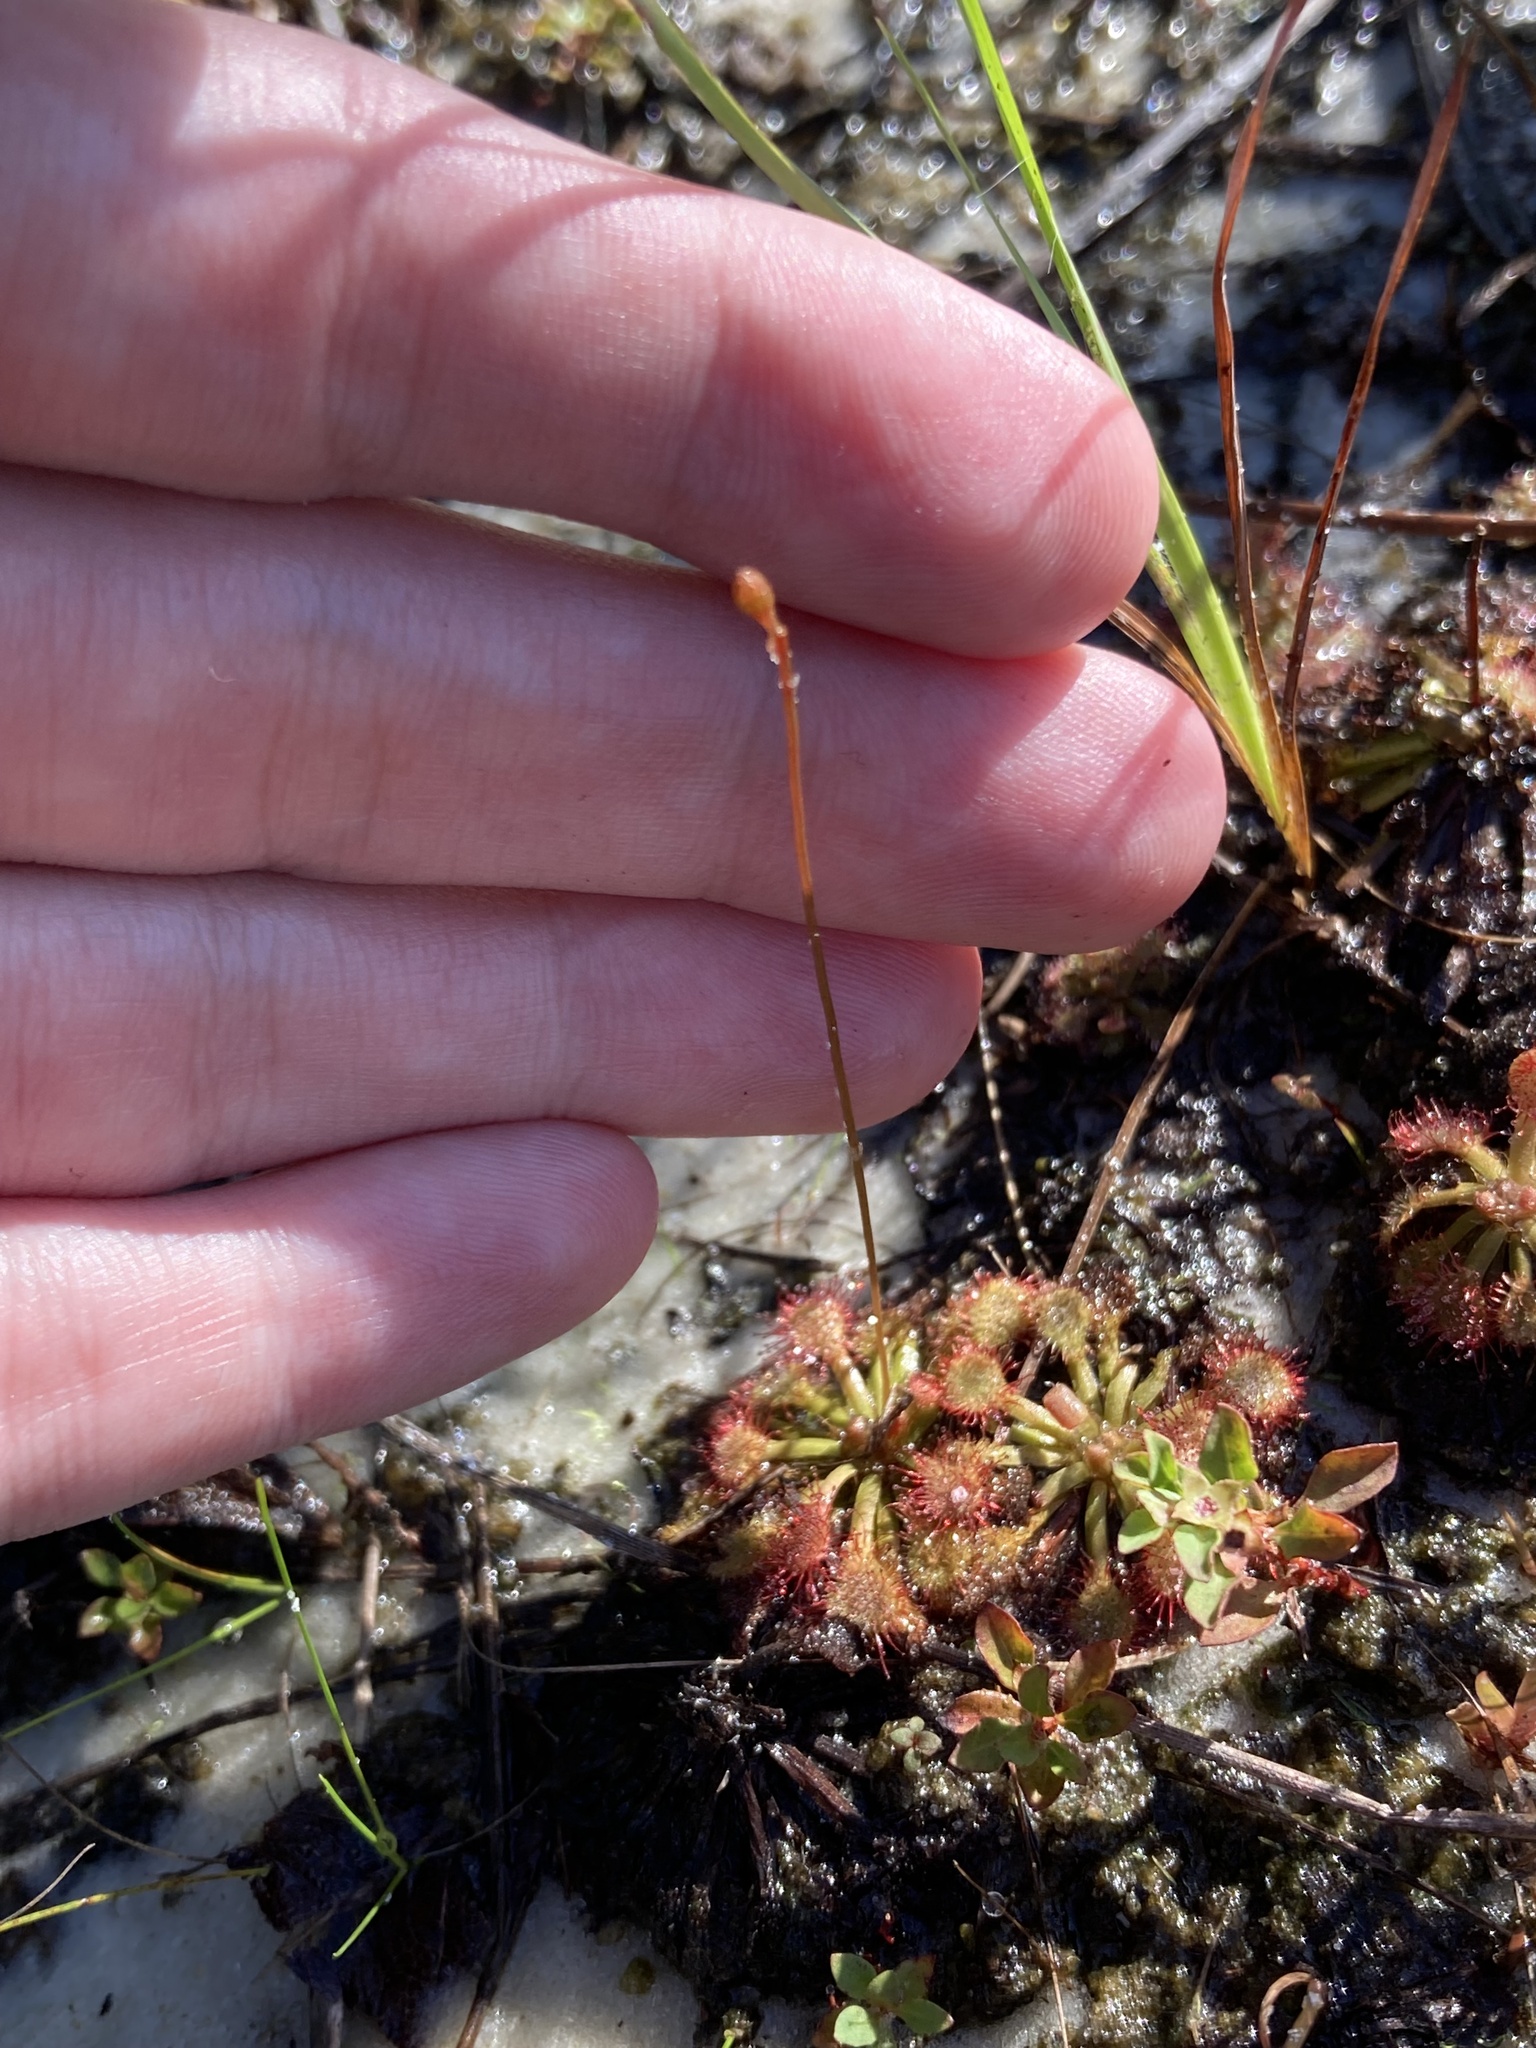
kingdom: Plantae
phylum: Tracheophyta
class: Magnoliopsida
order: Caryophyllales
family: Droseraceae
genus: Drosera
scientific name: Drosera capillaris
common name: Pink sundew
